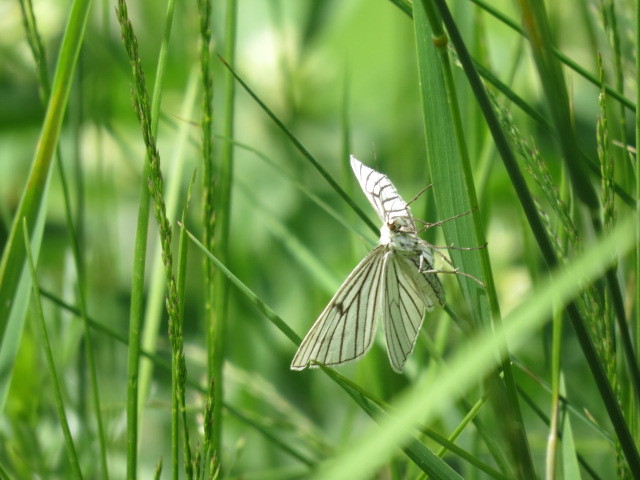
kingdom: Animalia
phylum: Arthropoda
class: Insecta
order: Lepidoptera
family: Geometridae
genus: Siona
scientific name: Siona lineata
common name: Black-veined moth
